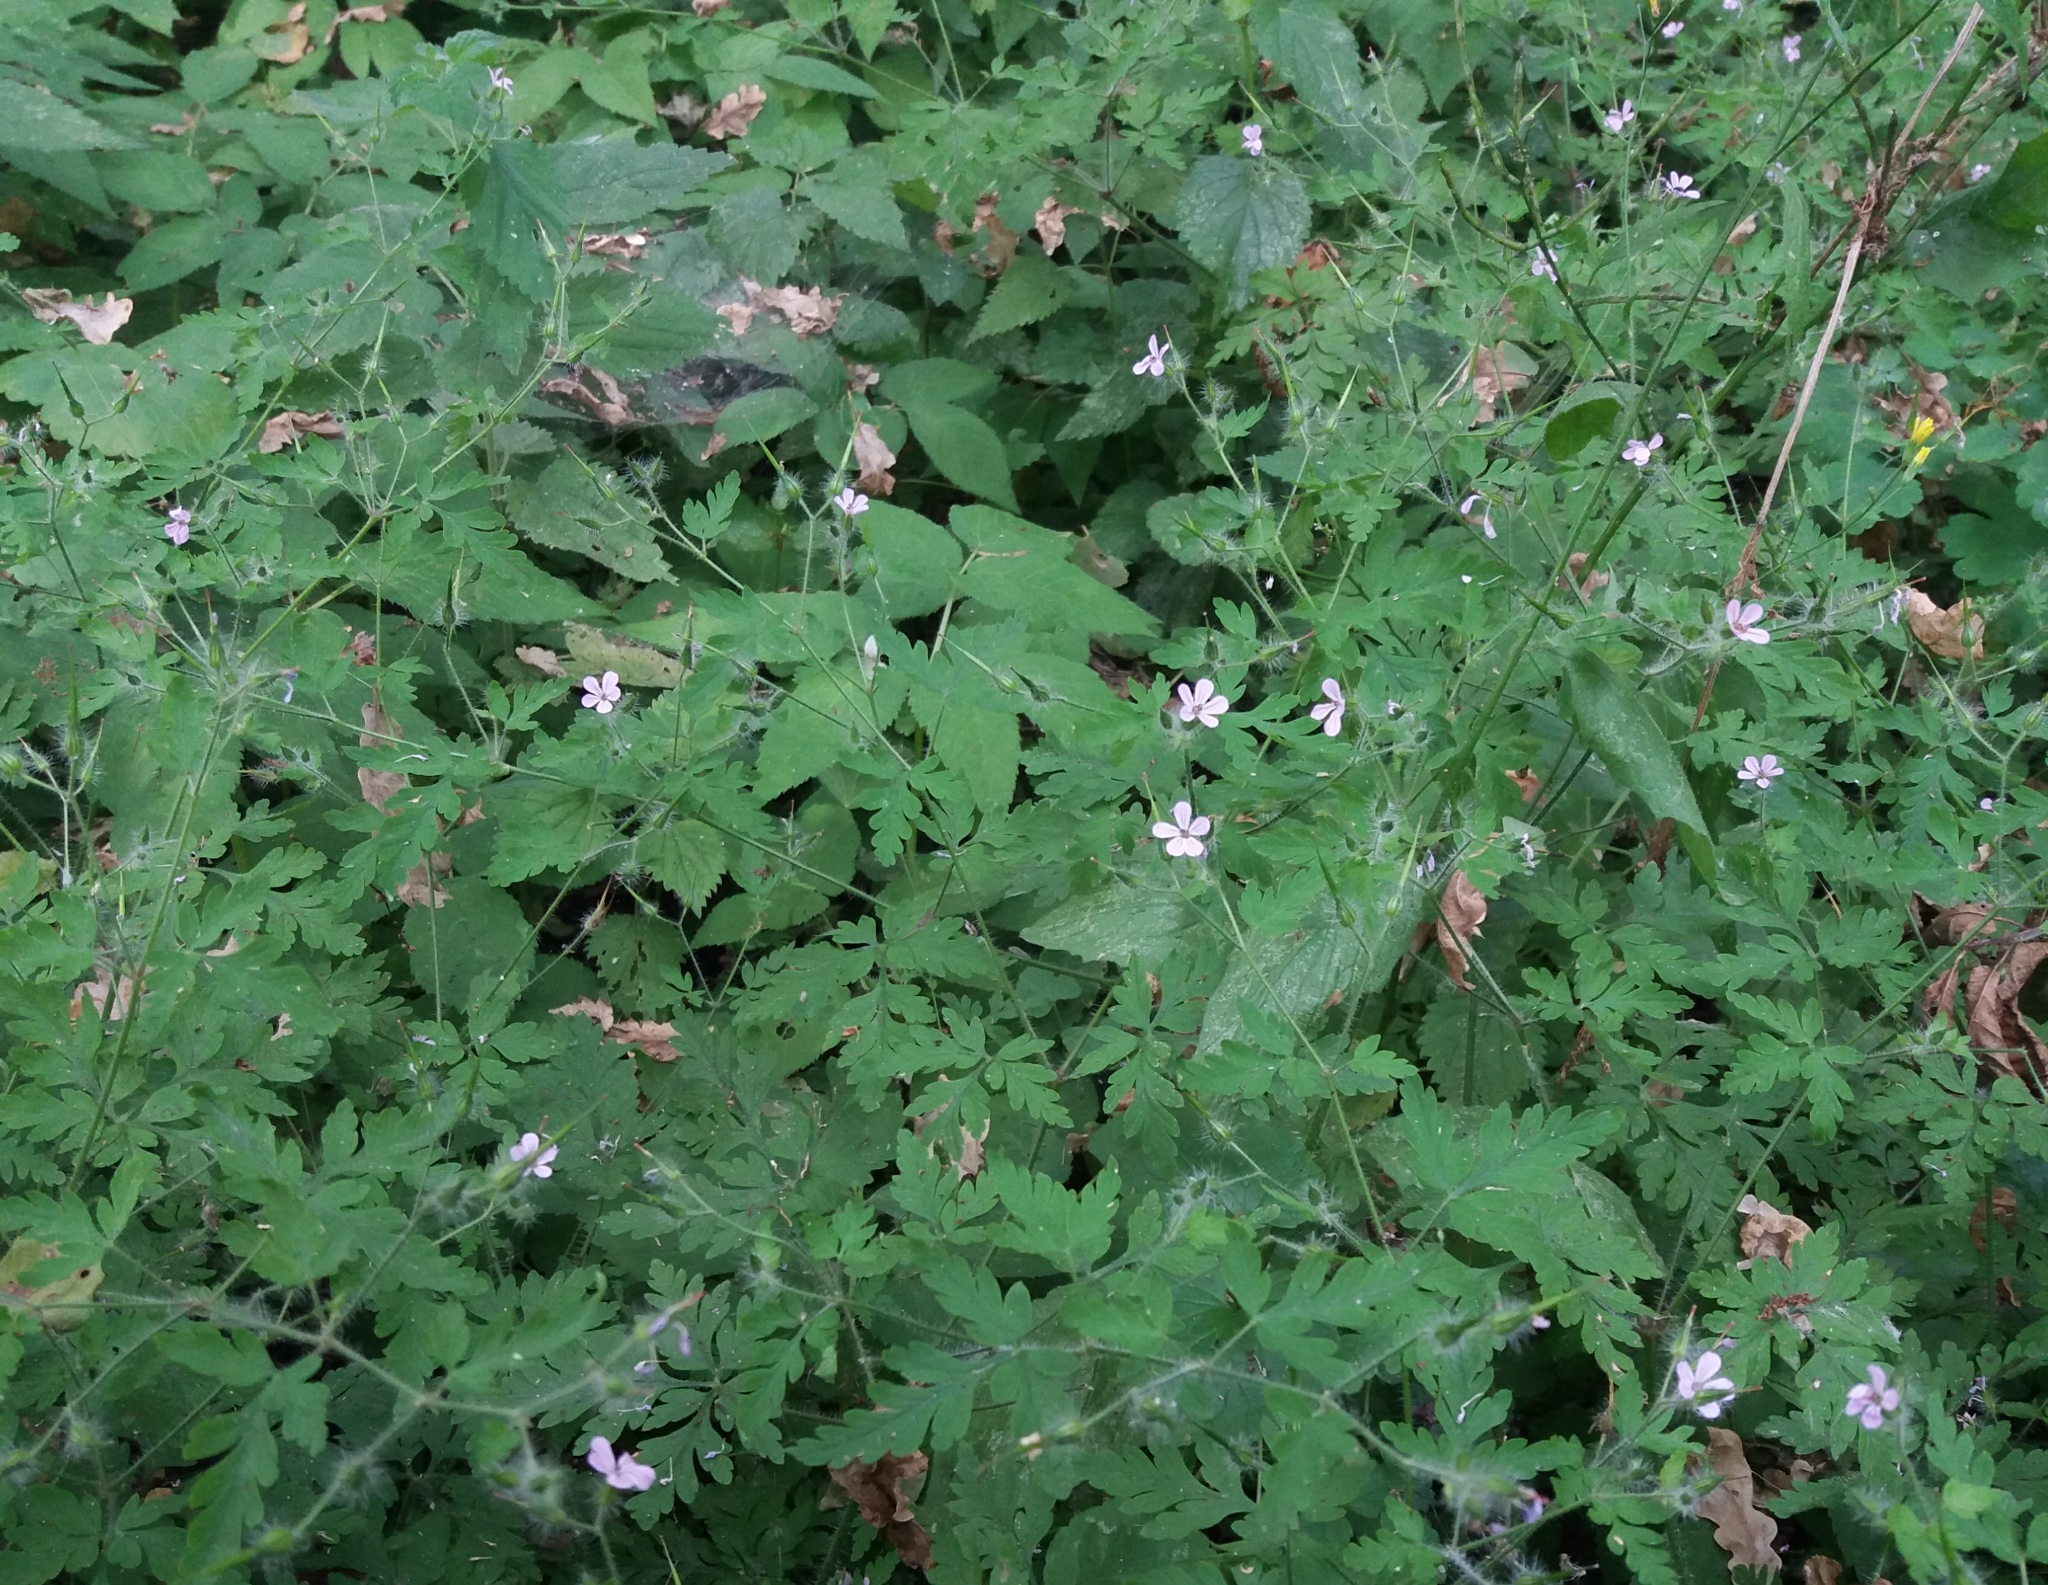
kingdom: Plantae
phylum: Tracheophyta
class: Magnoliopsida
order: Geraniales
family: Geraniaceae
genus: Geranium
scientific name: Geranium robertianum
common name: Herb-robert
